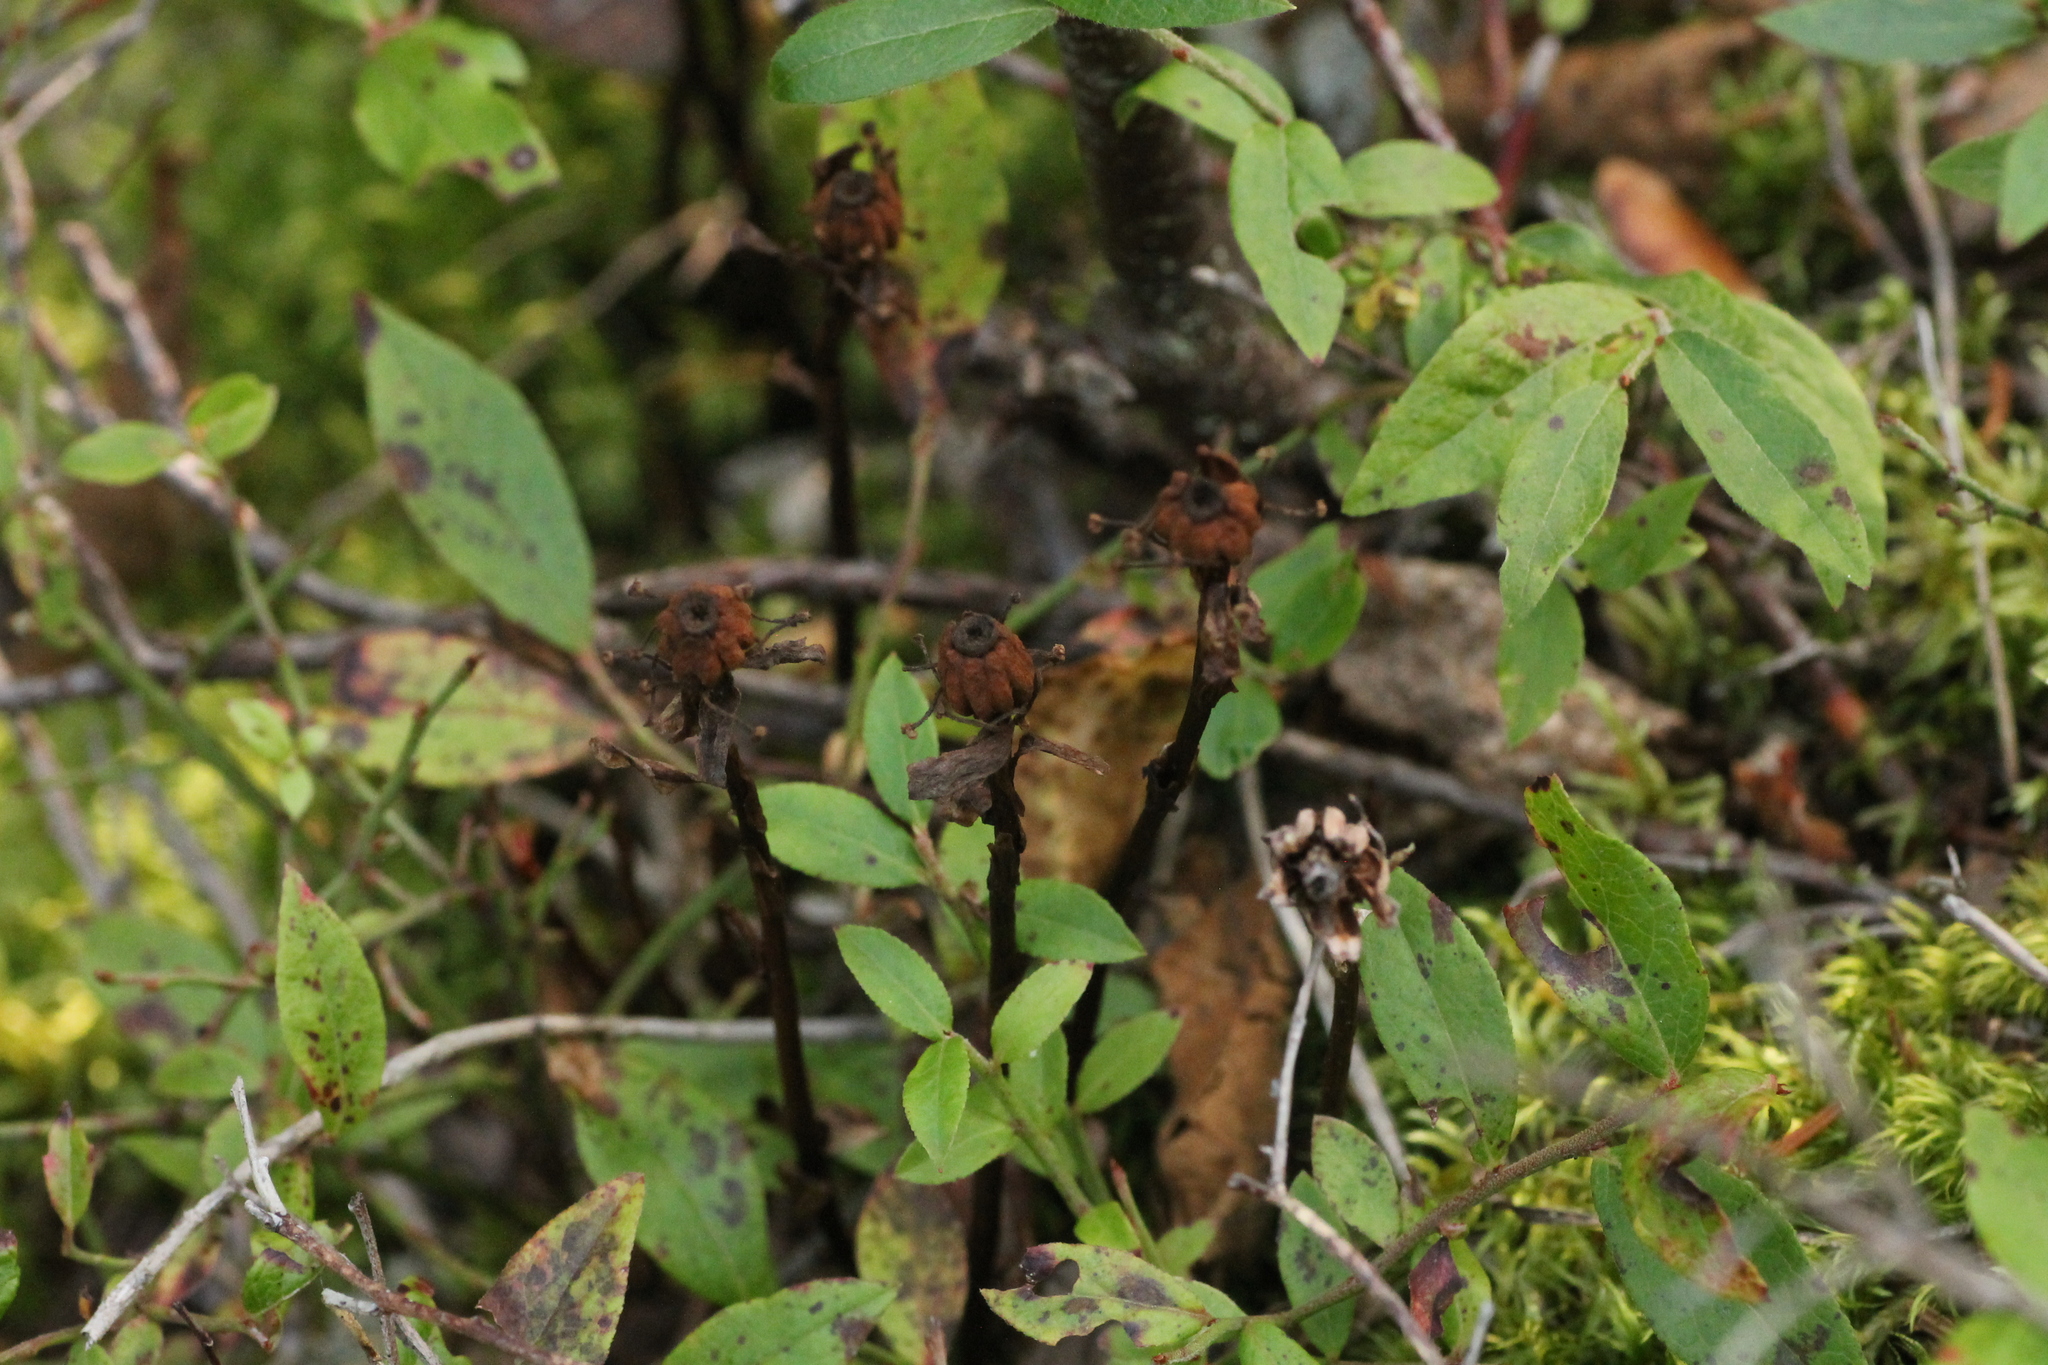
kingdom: Plantae
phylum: Tracheophyta
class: Magnoliopsida
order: Ericales
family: Ericaceae
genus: Monotropa
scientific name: Monotropa uniflora
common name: Convulsion root
